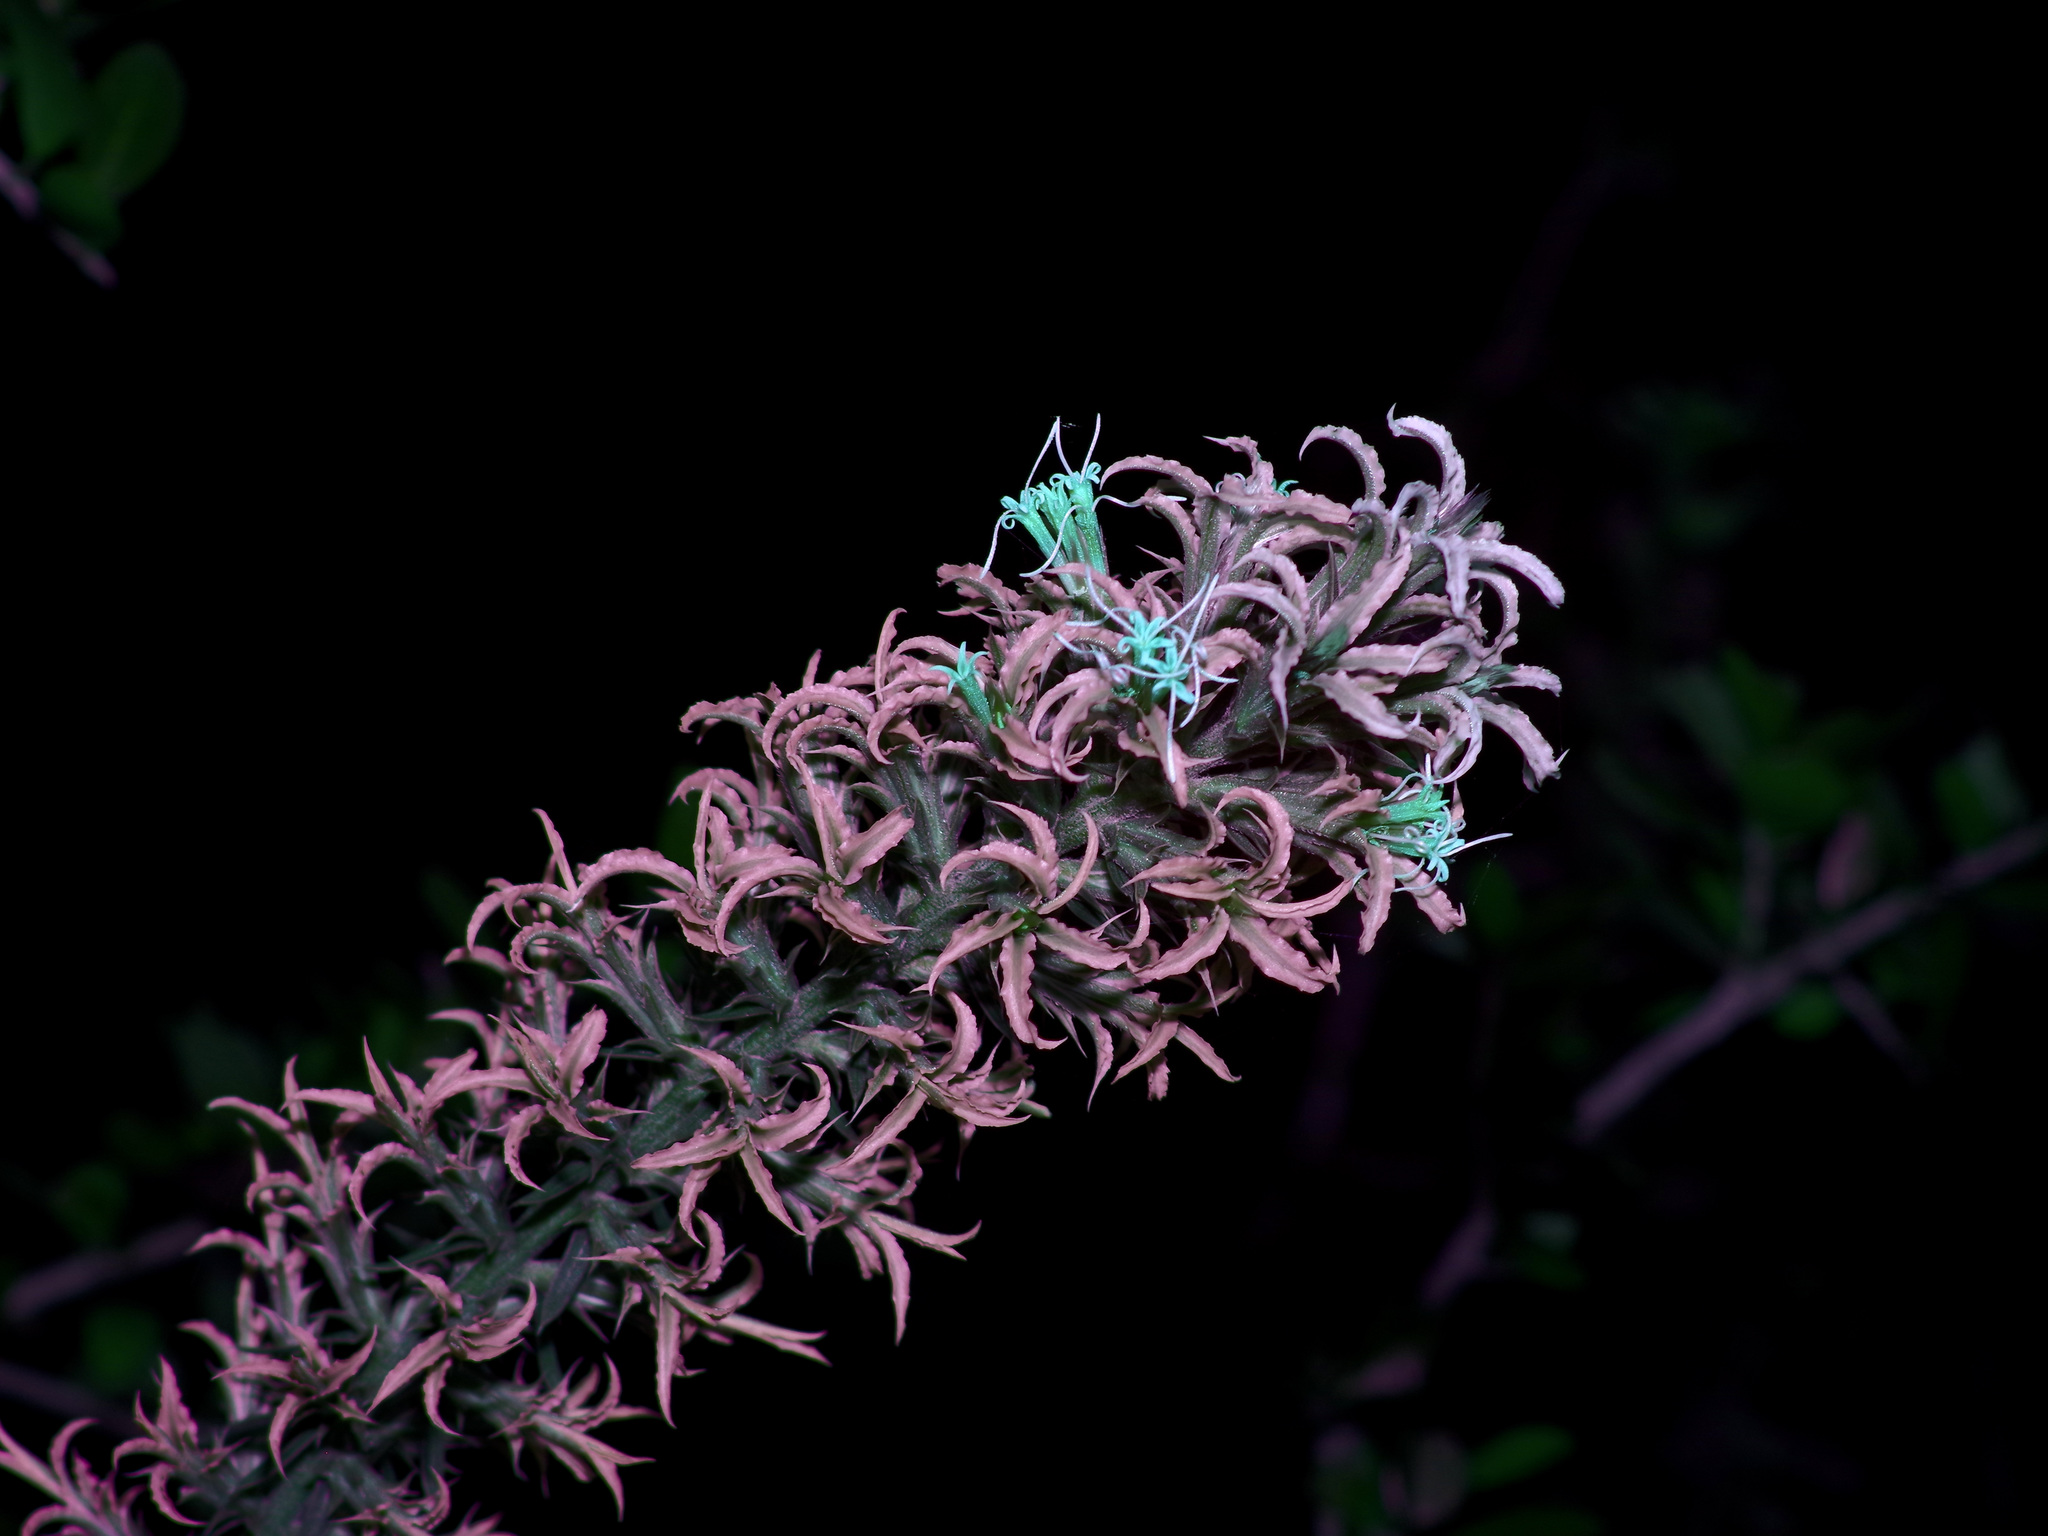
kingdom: Plantae
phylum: Tracheophyta
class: Magnoliopsida
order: Asterales
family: Asteraceae
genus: Liatris
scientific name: Liatris bridgesii
